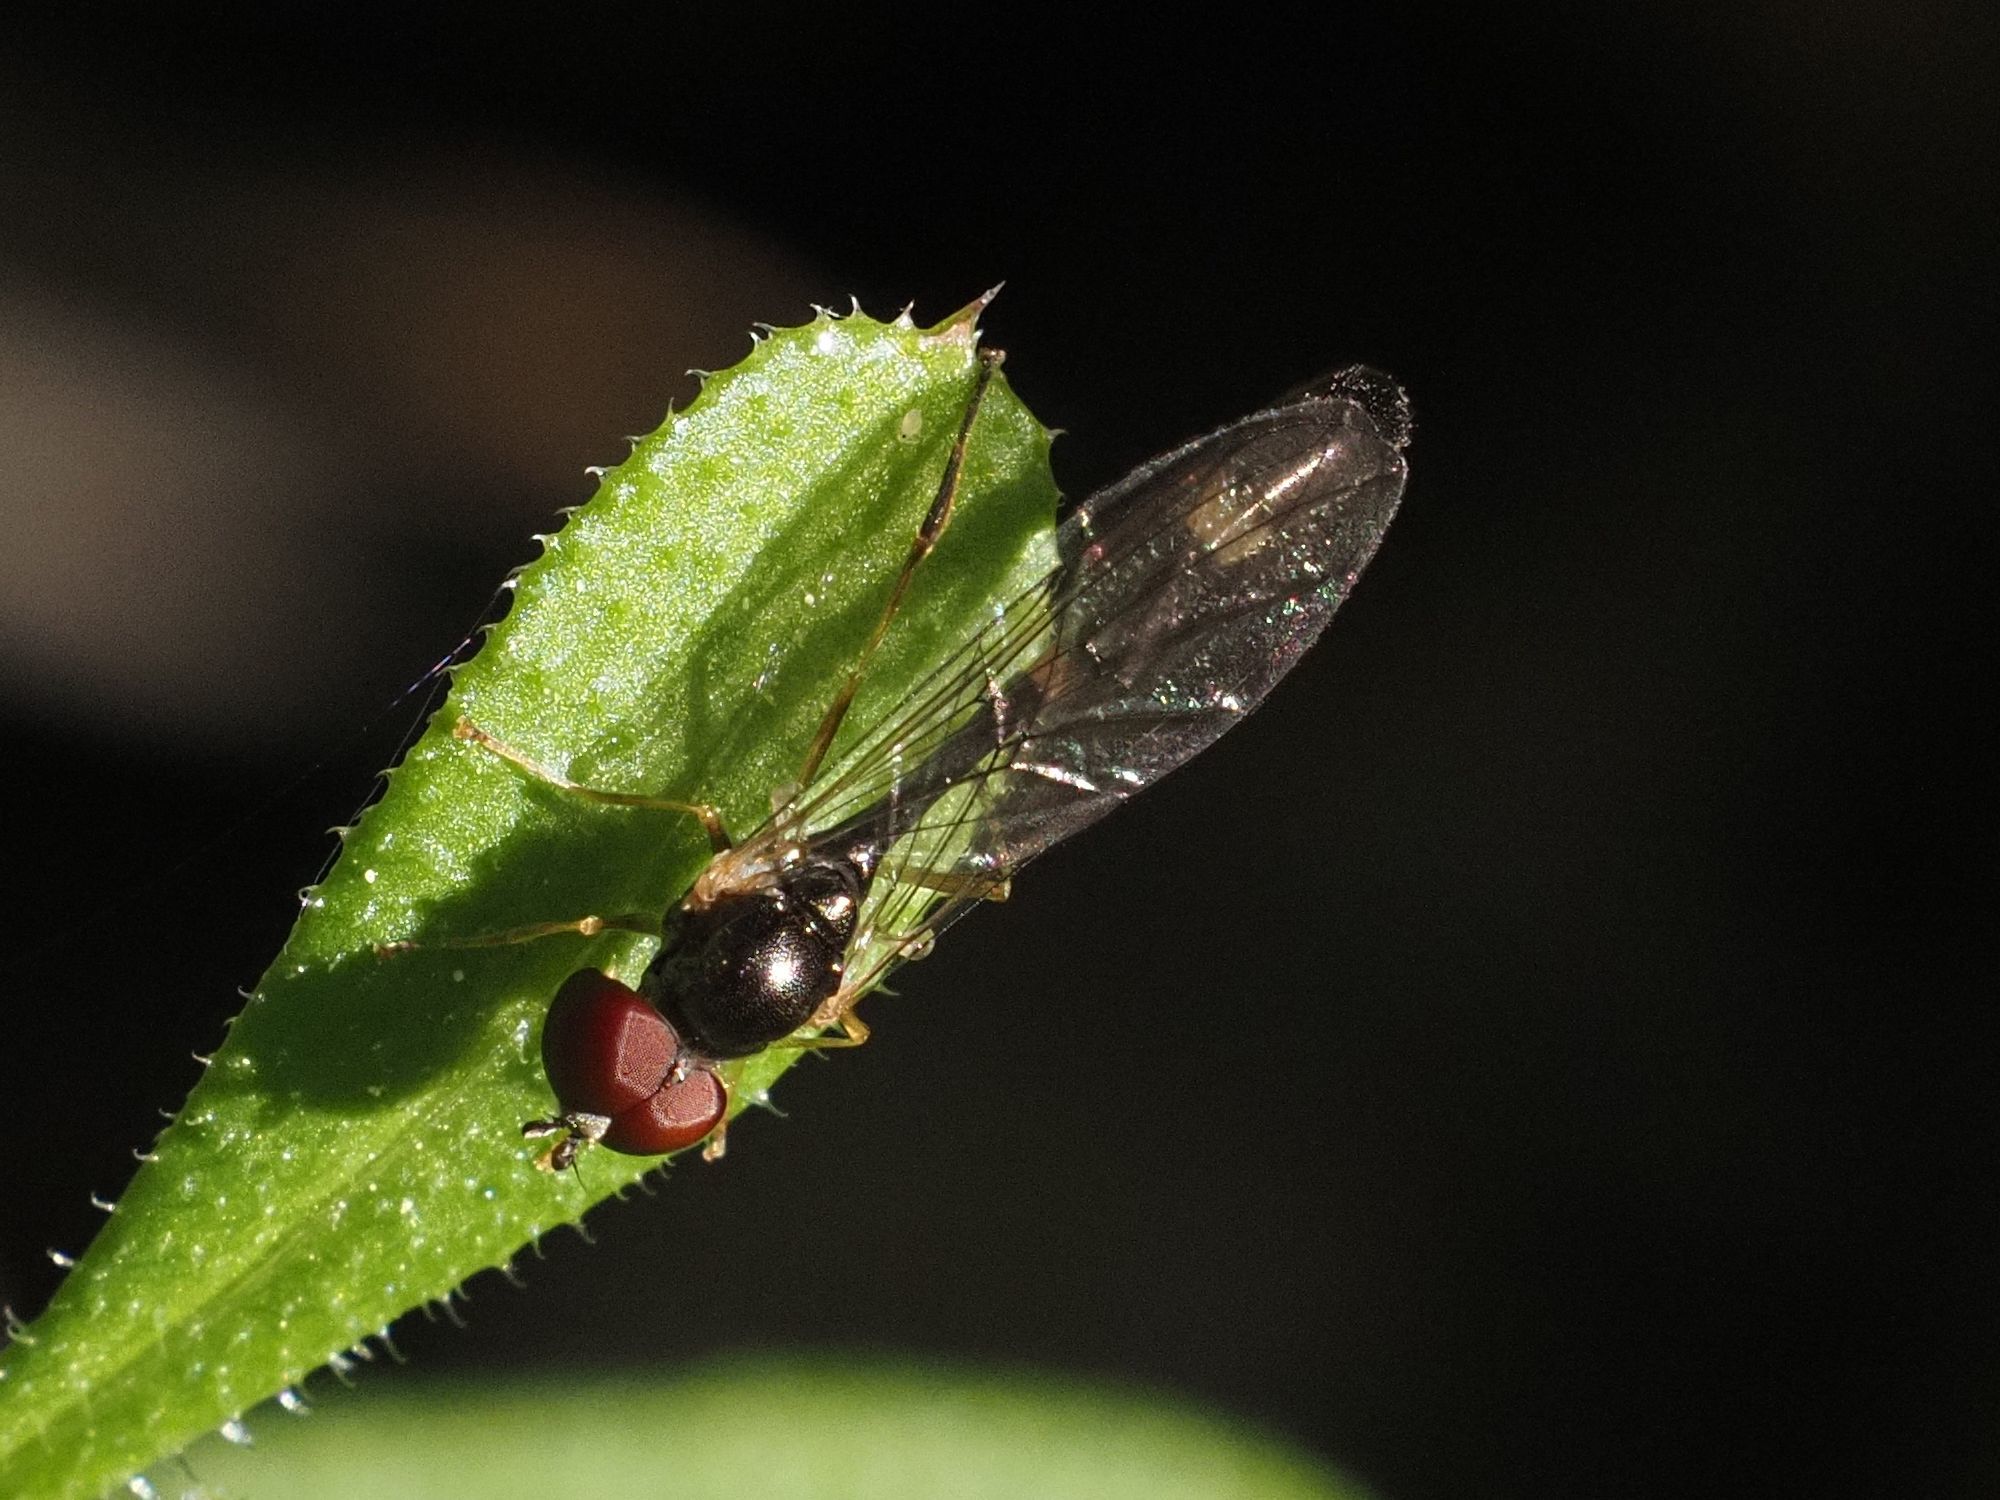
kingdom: Animalia
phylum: Arthropoda
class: Insecta
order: Diptera
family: Syrphidae
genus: Baccha
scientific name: Baccha elongata
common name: Common dainty
